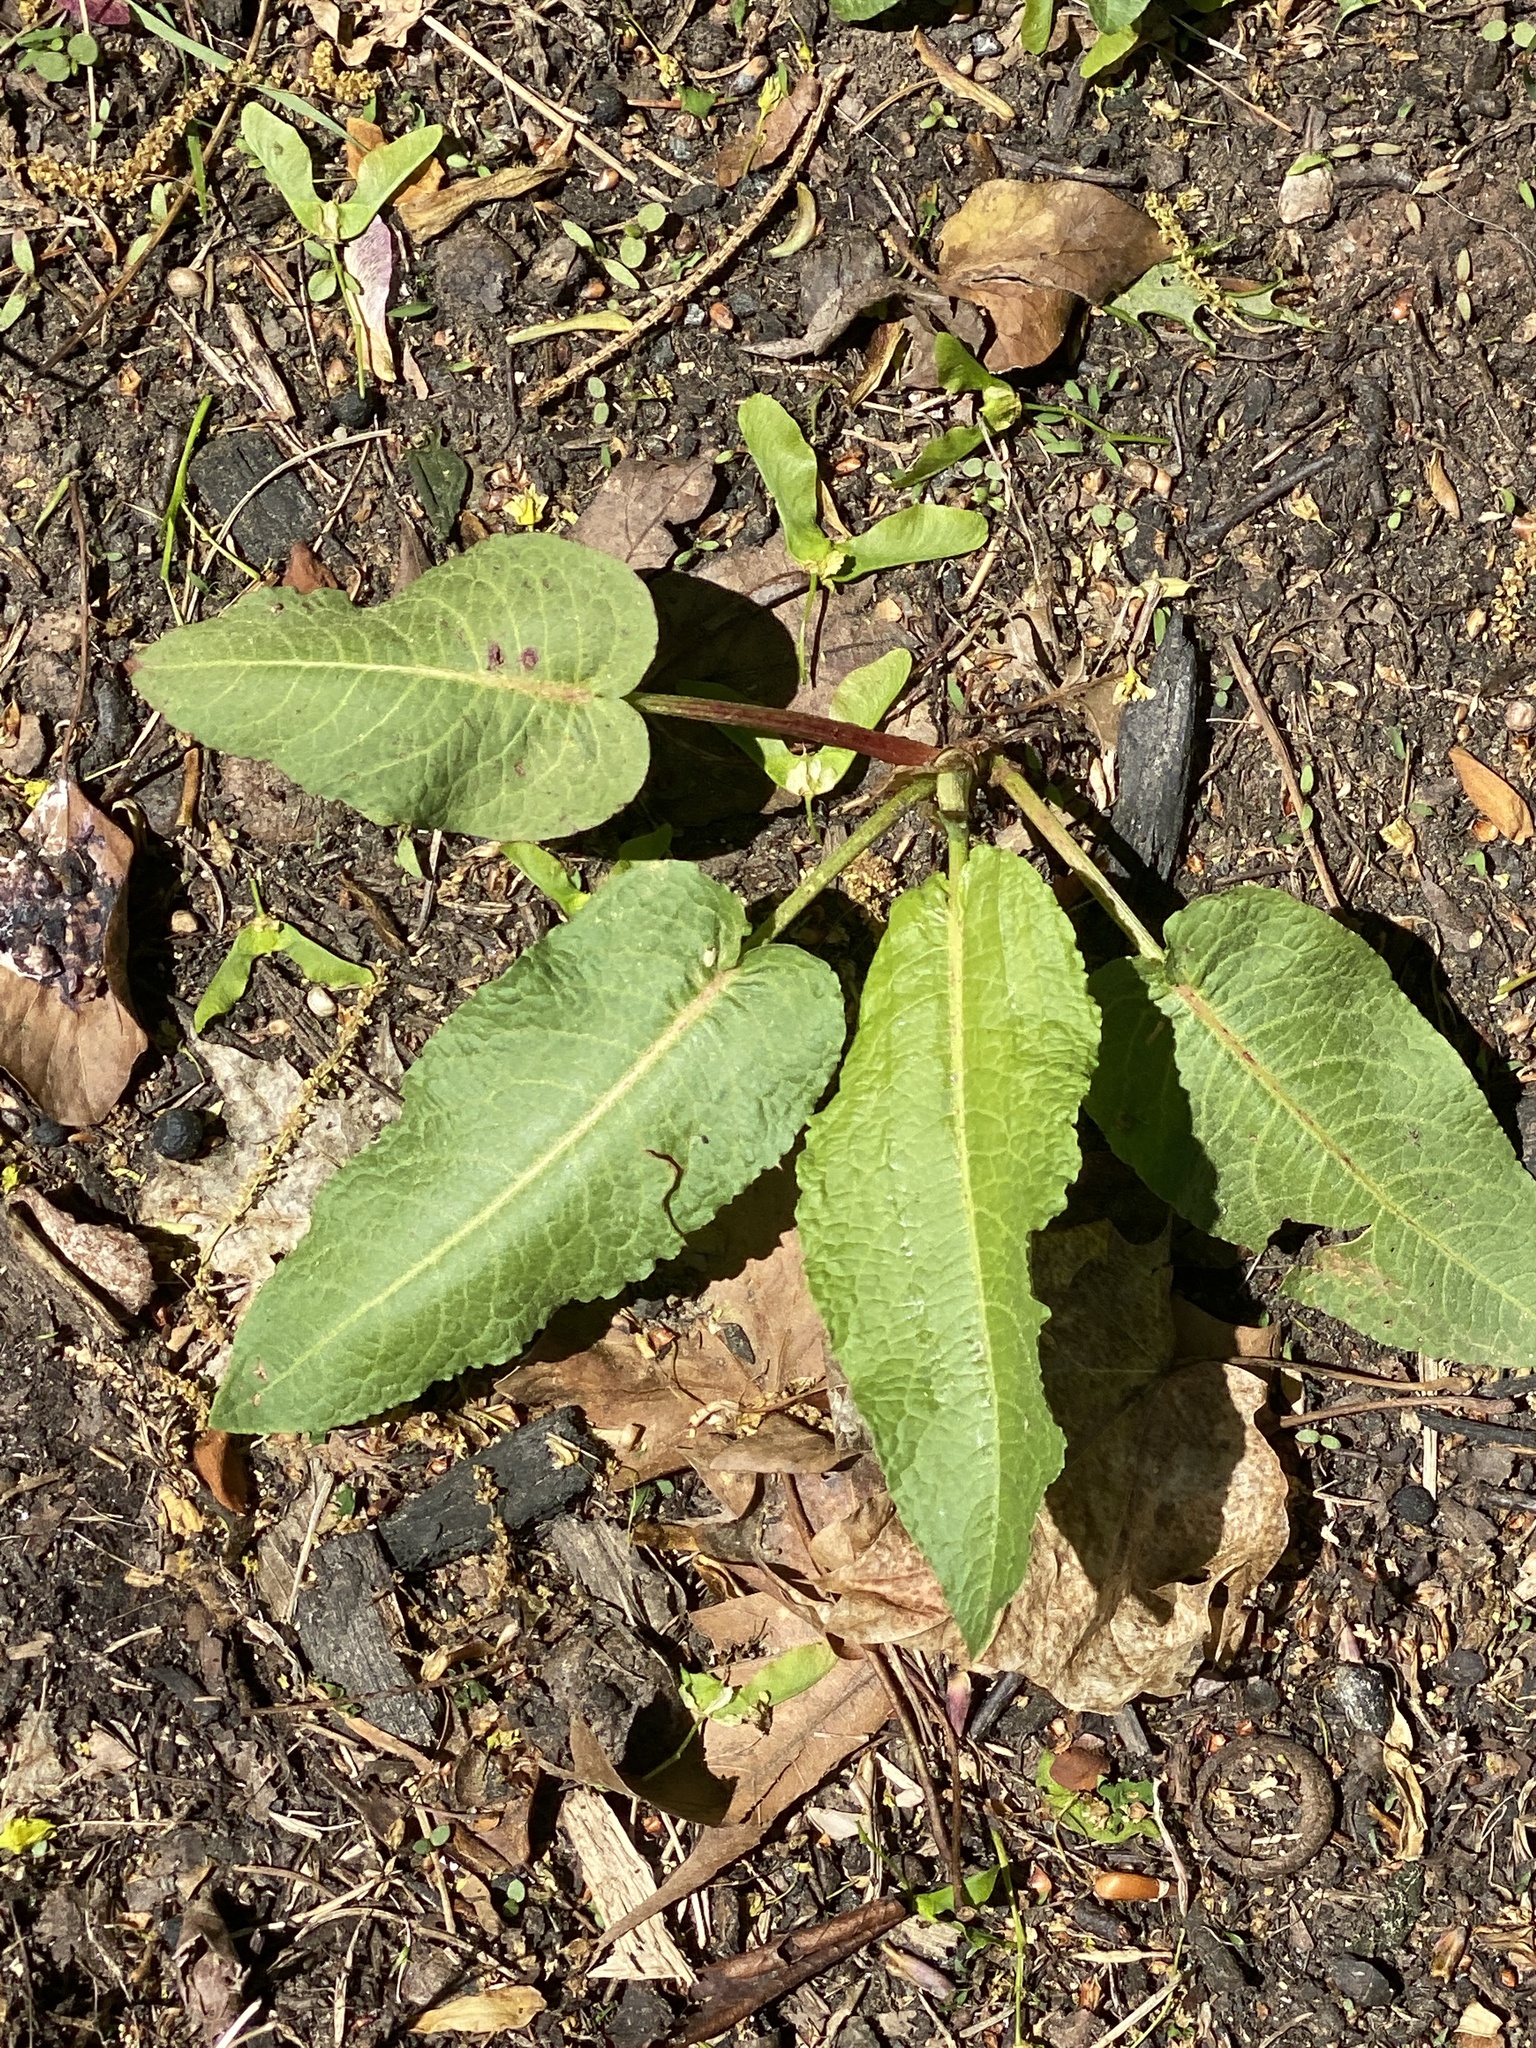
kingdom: Plantae
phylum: Tracheophyta
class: Magnoliopsida
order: Caryophyllales
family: Polygonaceae
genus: Rumex
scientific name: Rumex obtusifolius
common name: Bitter dock
